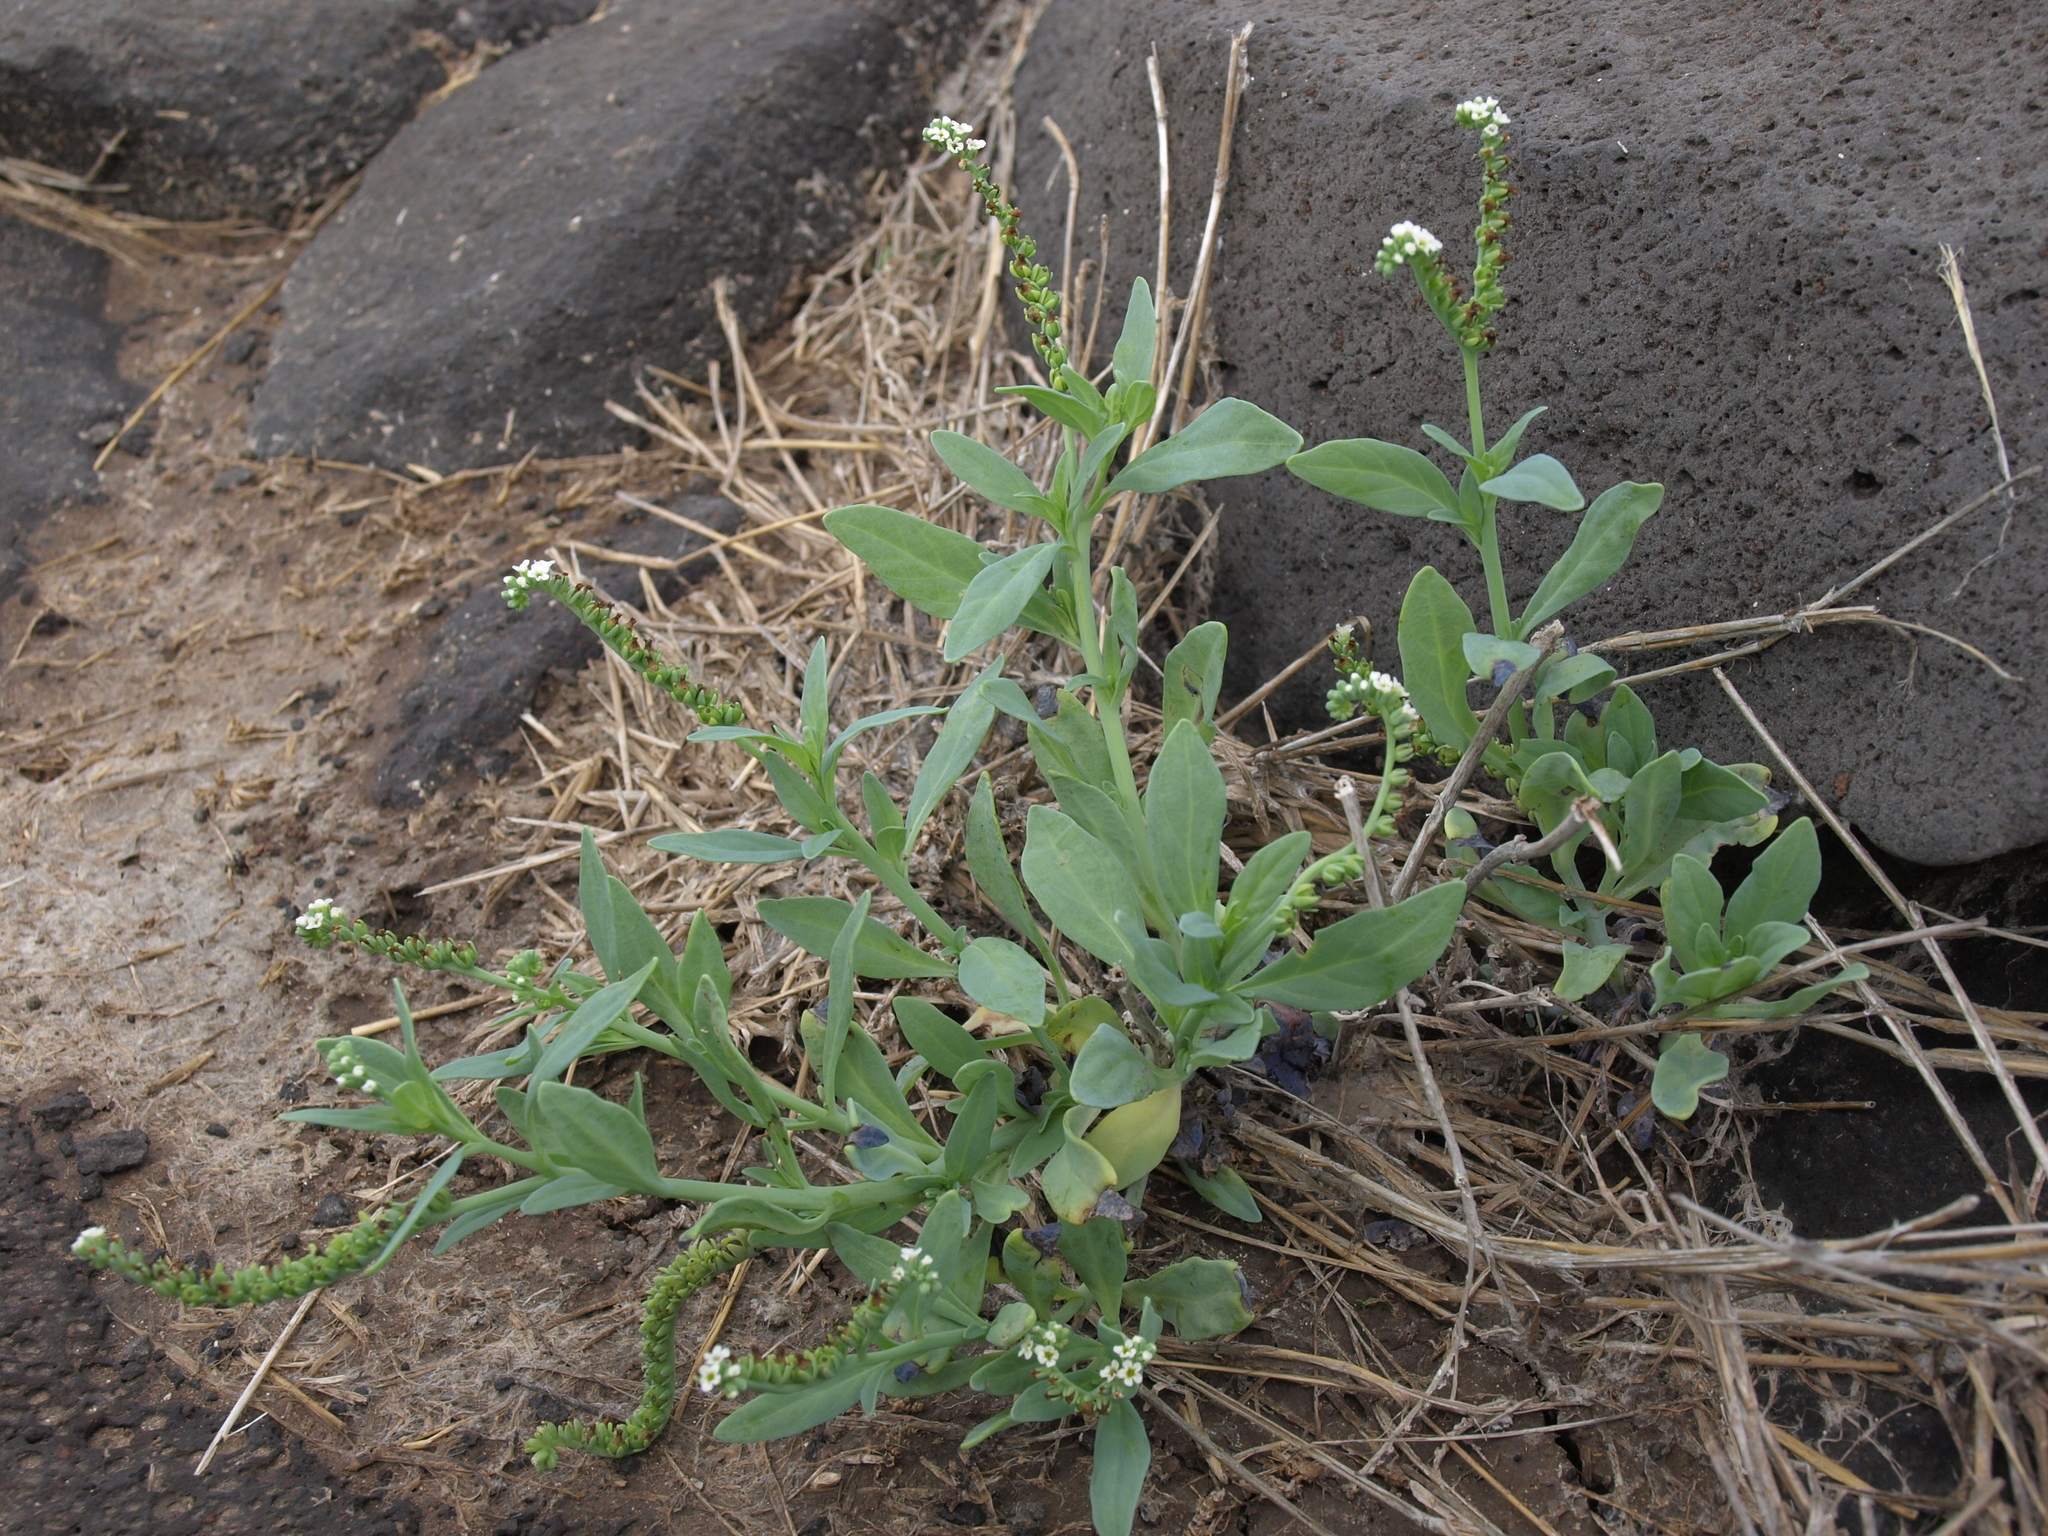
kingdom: Plantae
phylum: Tracheophyta
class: Magnoliopsida
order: Boraginales
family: Heliotropiaceae
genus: Heliotropium
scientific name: Heliotropium curassavicum
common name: Seaside heliotrope
